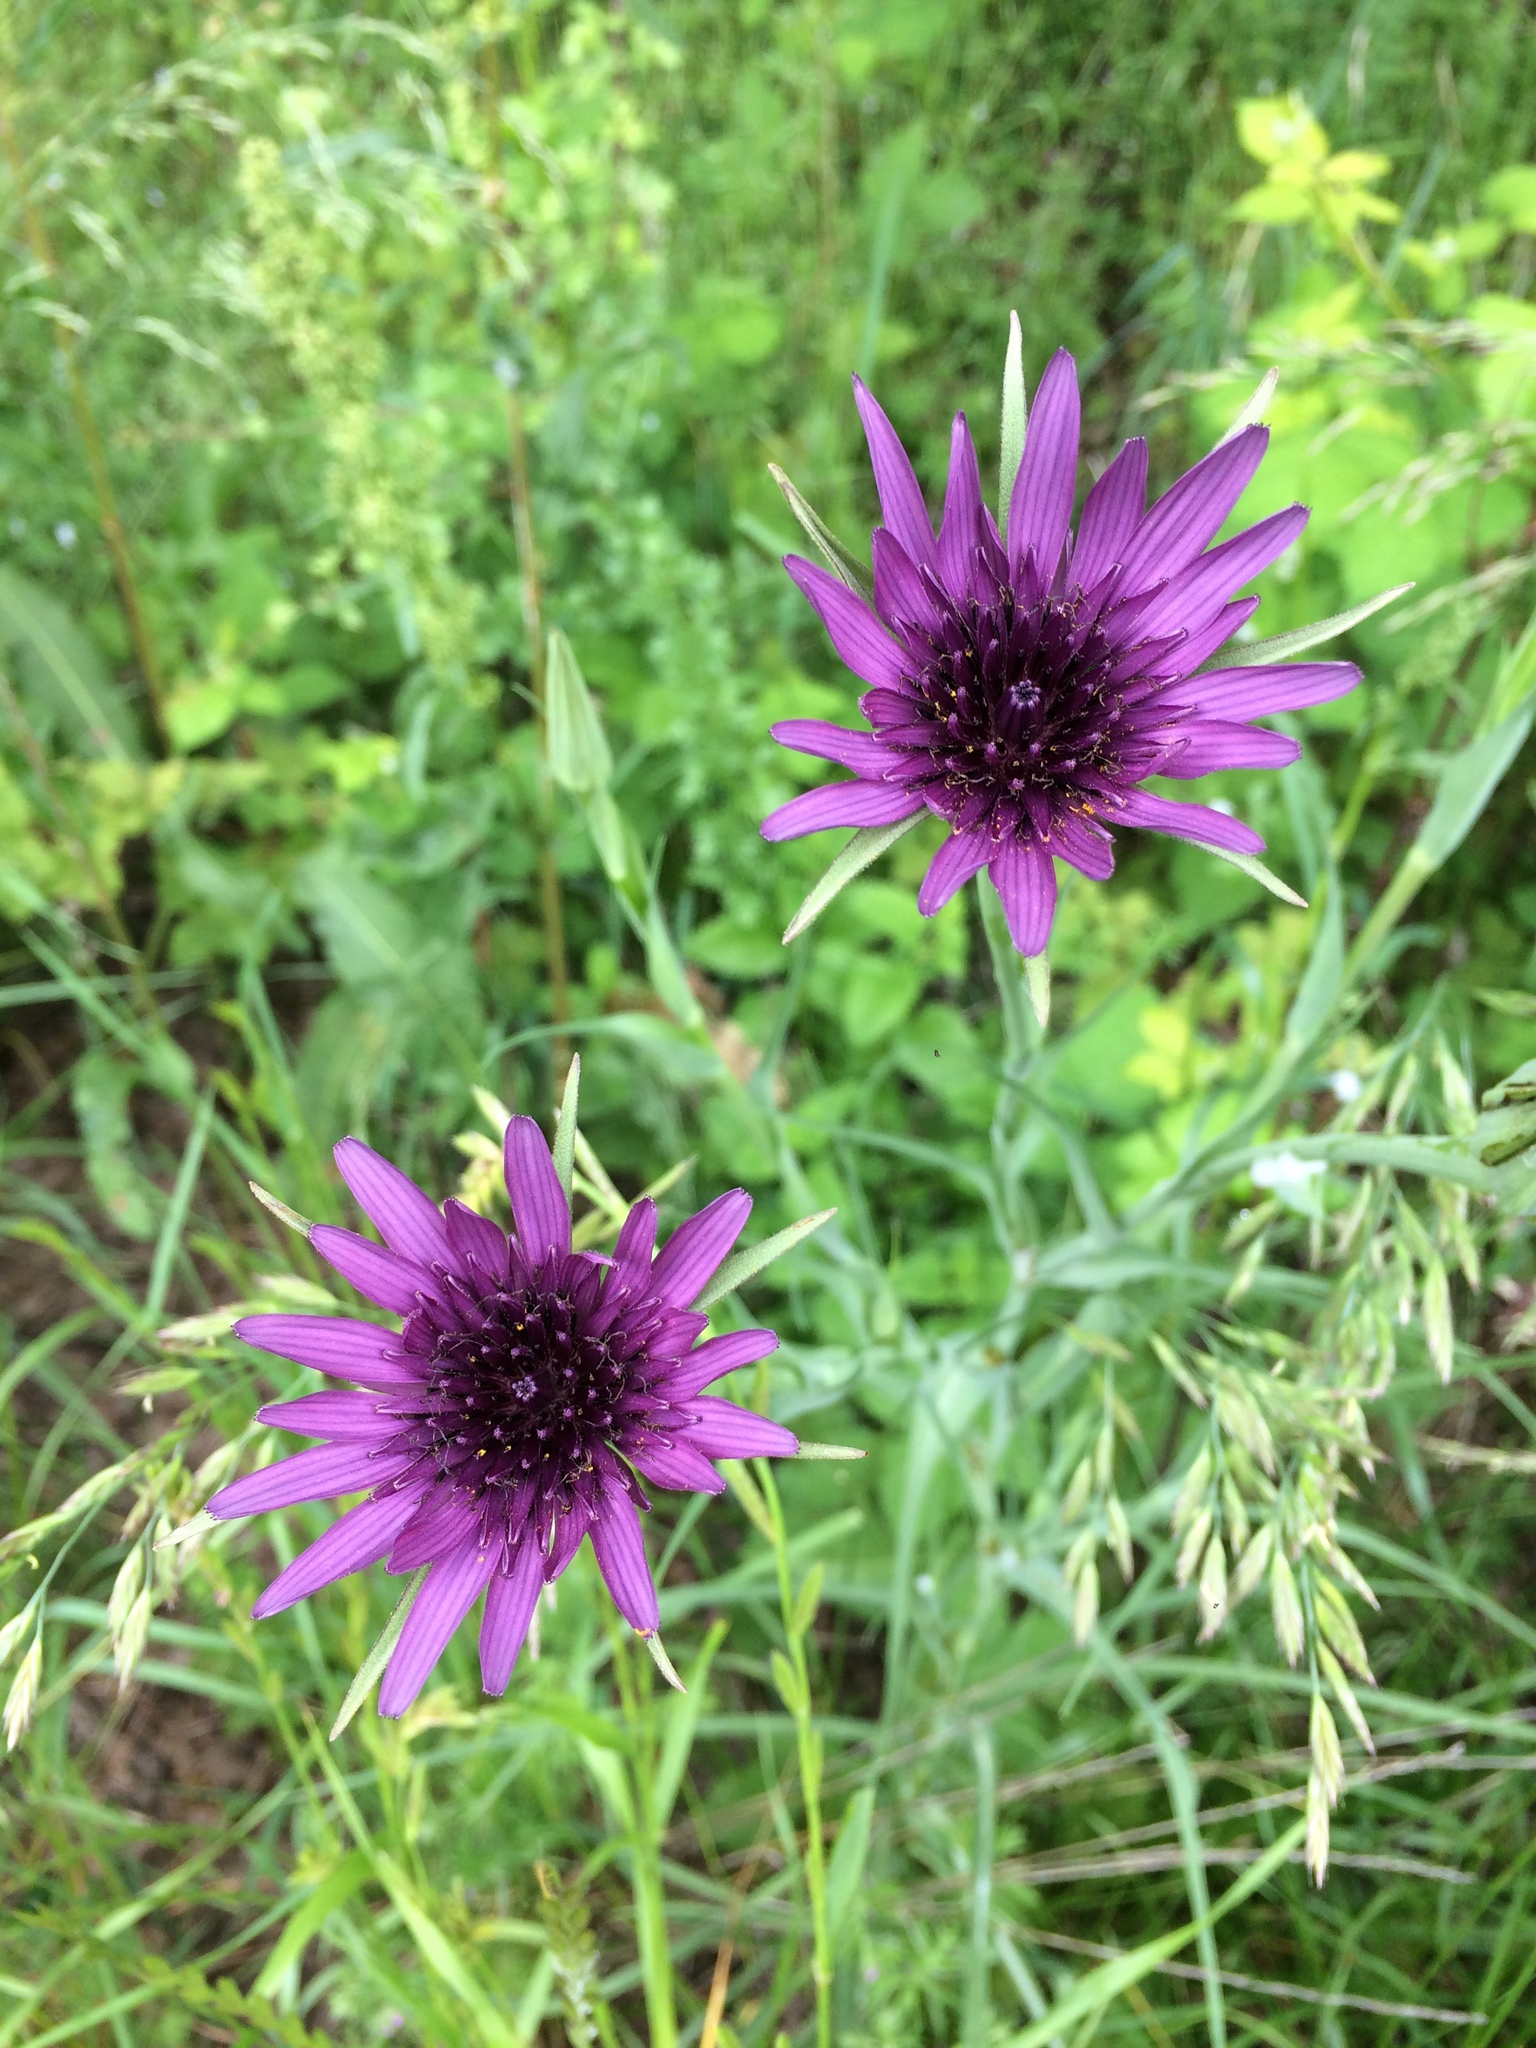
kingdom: Plantae
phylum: Tracheophyta
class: Magnoliopsida
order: Asterales
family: Asteraceae
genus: Tragopogon
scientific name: Tragopogon porrifolius
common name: Salsify
